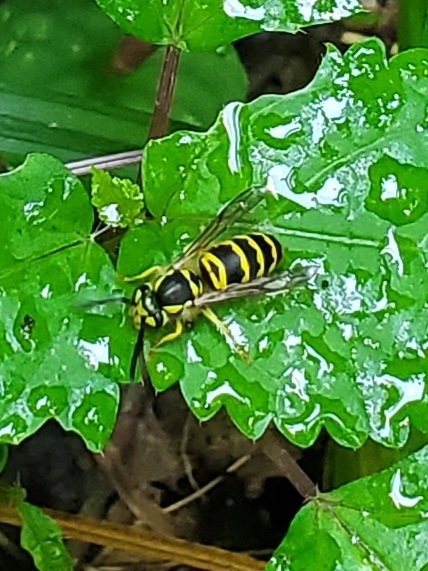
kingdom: Animalia
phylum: Arthropoda
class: Insecta
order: Hymenoptera
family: Vespidae
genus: Vespula
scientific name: Vespula maculifrons
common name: Eastern yellowjacket
